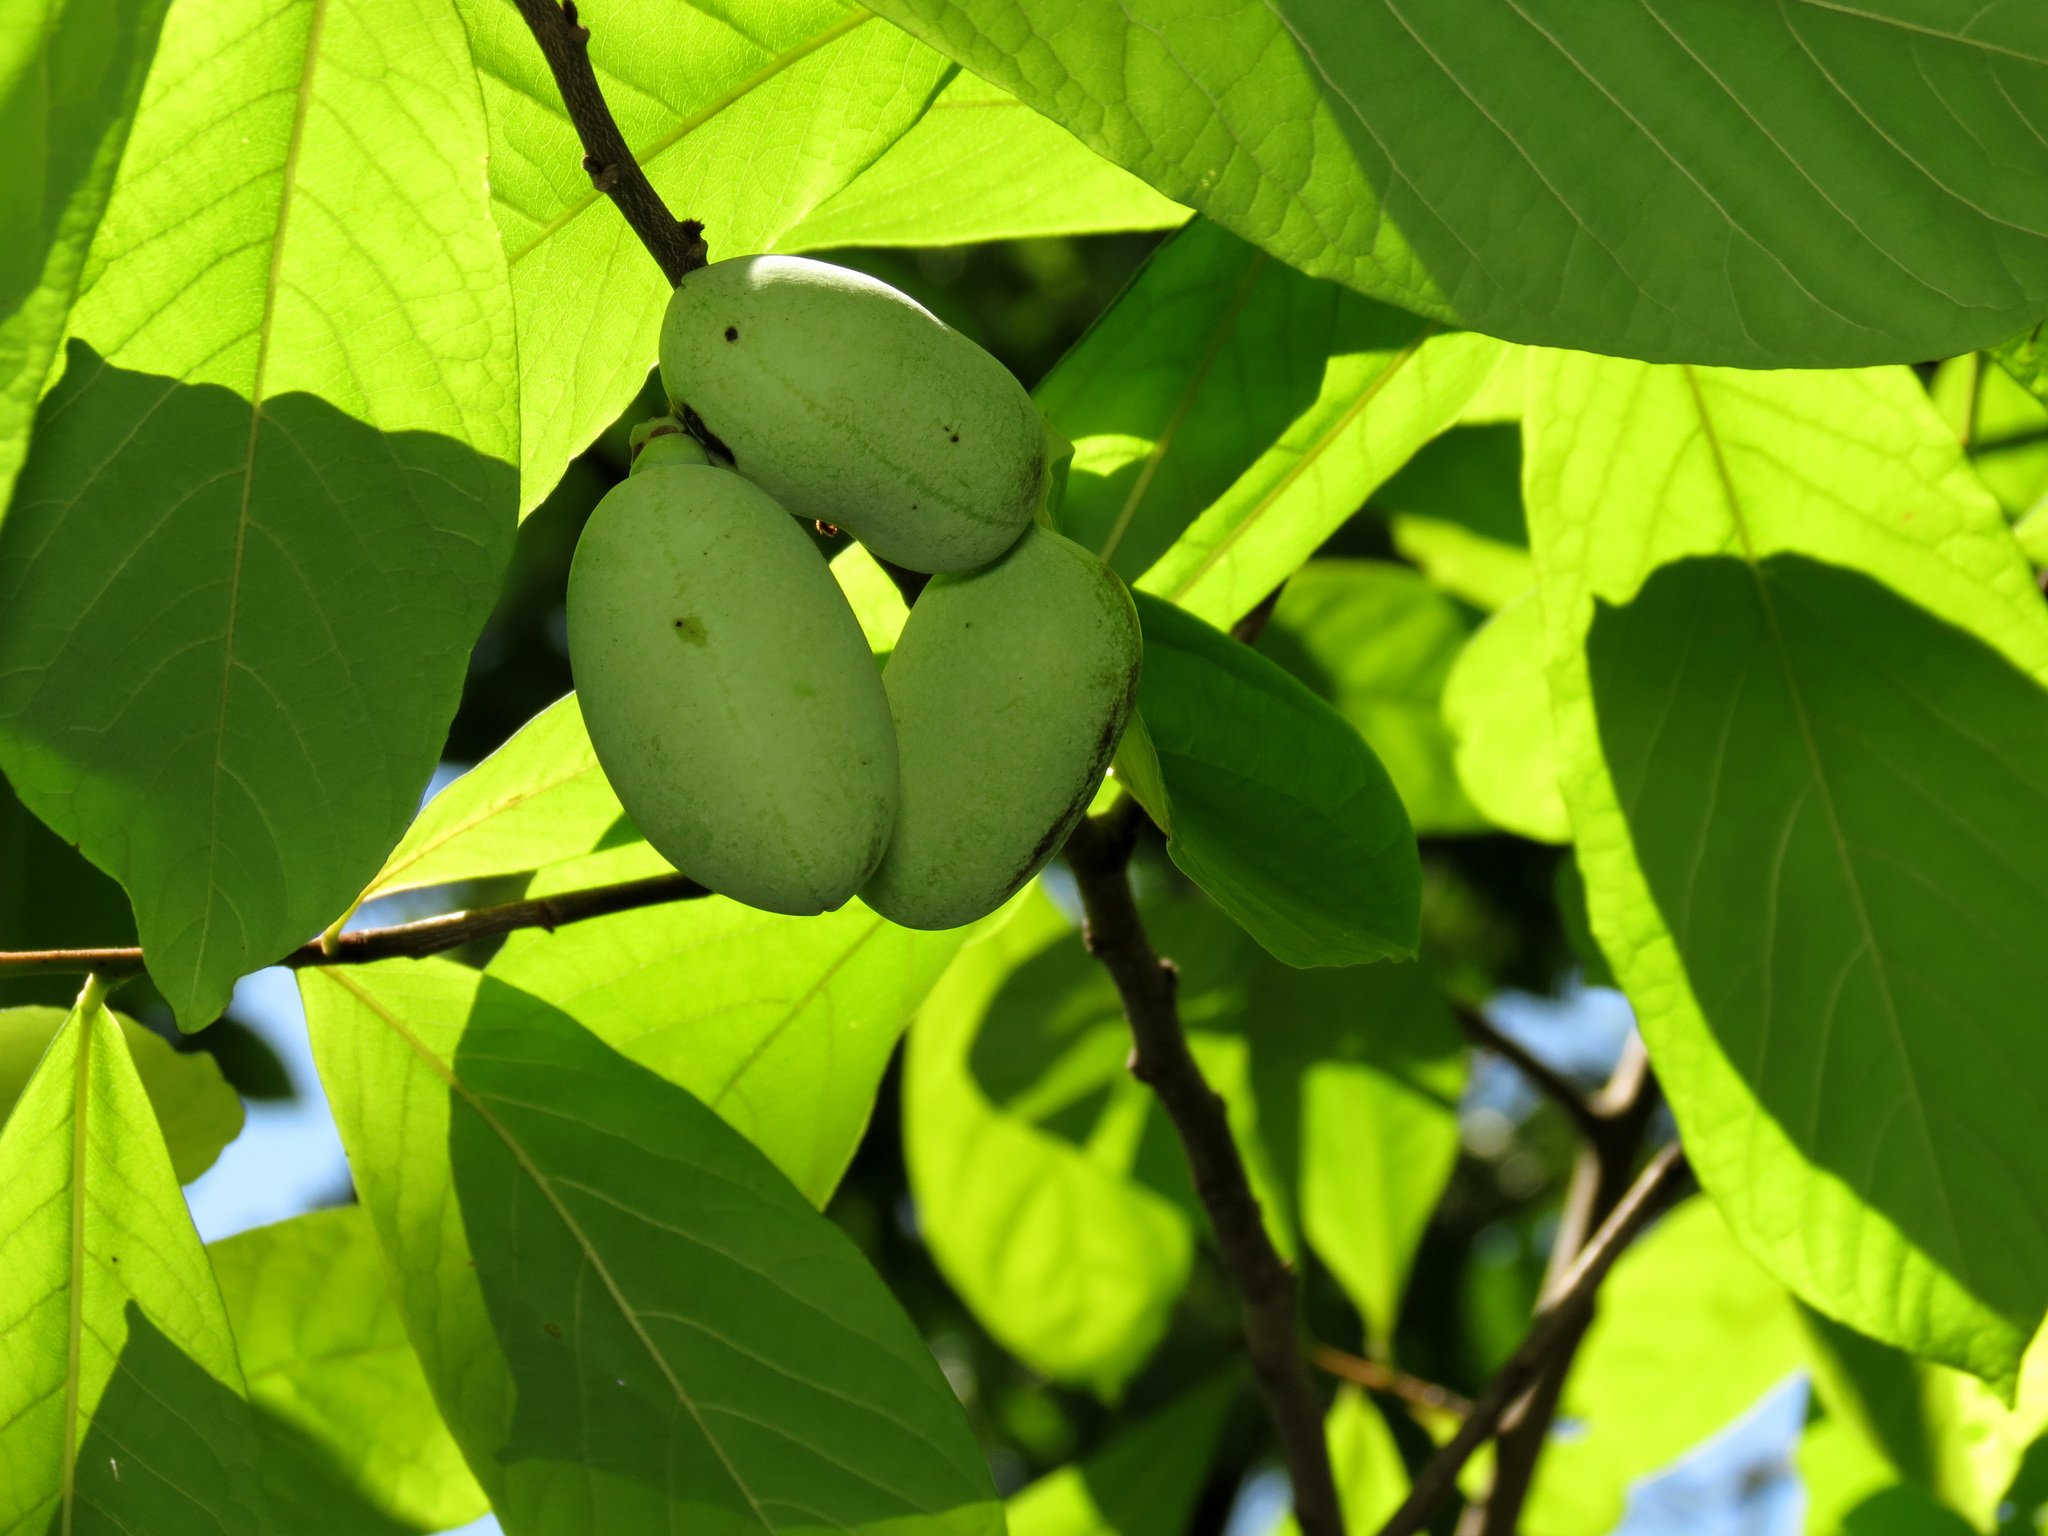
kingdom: Plantae
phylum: Tracheophyta
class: Magnoliopsida
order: Magnoliales
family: Annonaceae
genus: Asimina
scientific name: Asimina triloba
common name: Dog-banana
